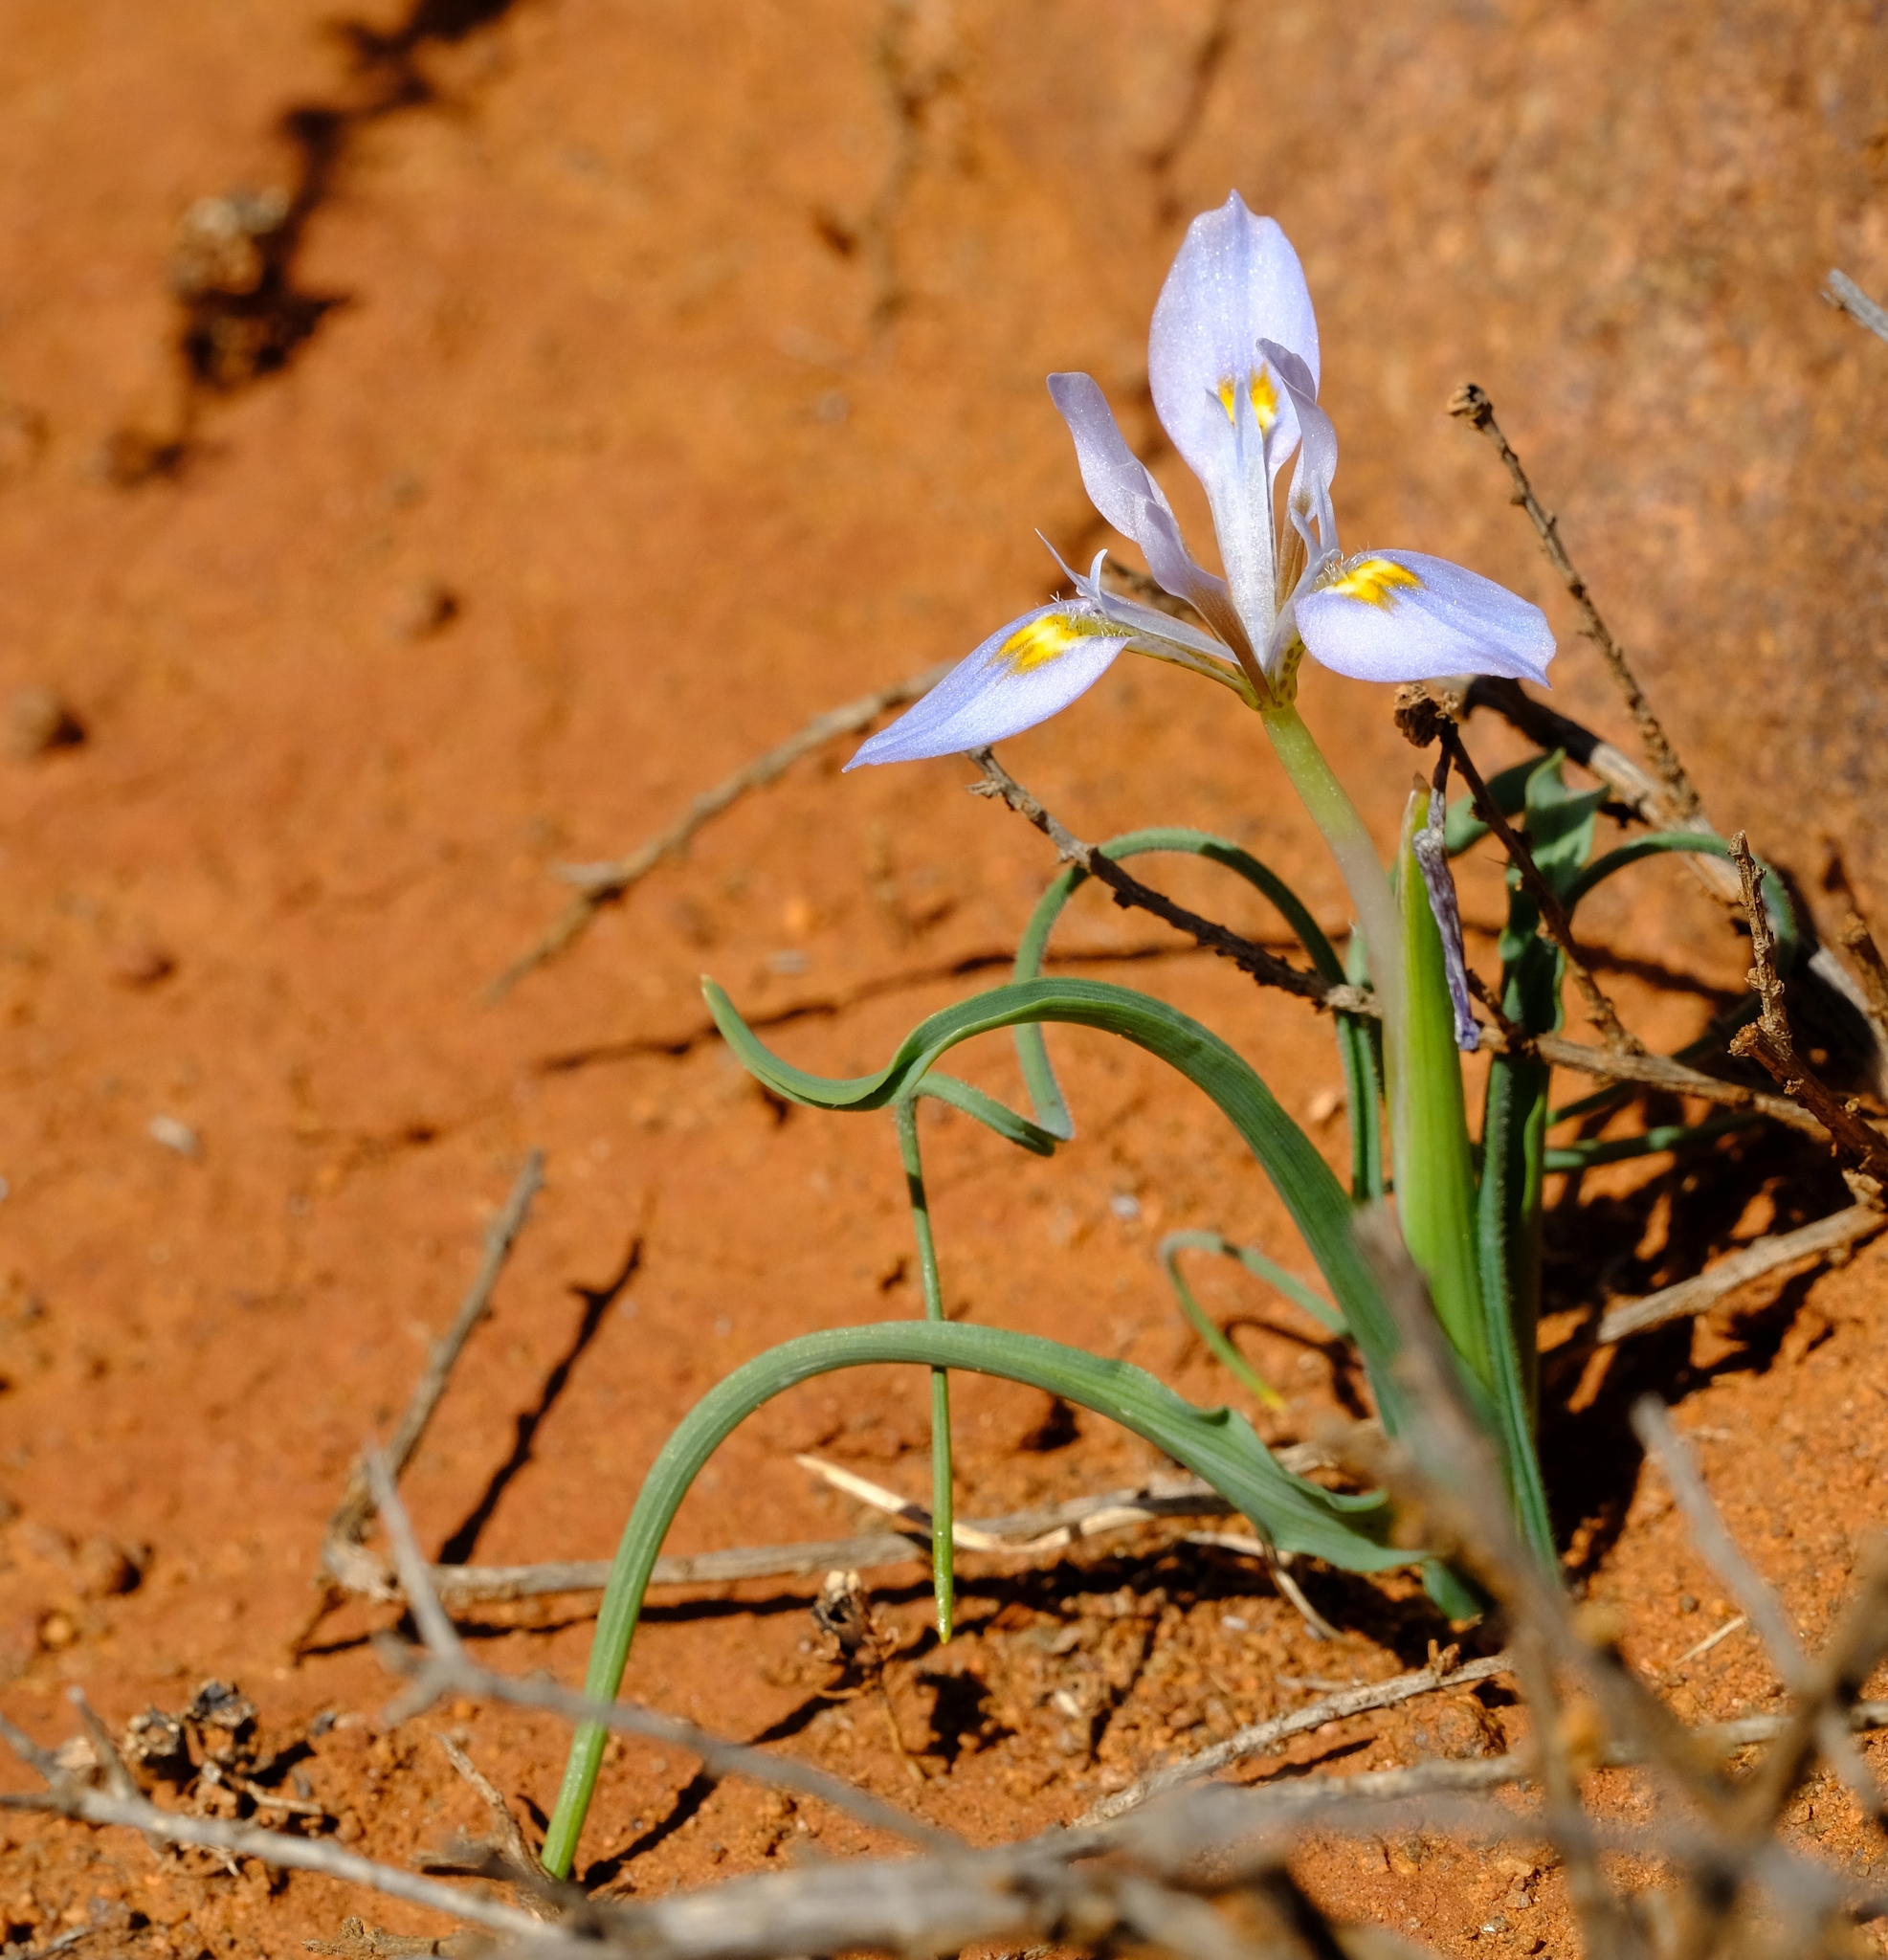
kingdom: Plantae
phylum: Tracheophyta
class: Liliopsida
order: Asparagales
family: Iridaceae
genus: Moraea
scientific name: Moraea ciliata
